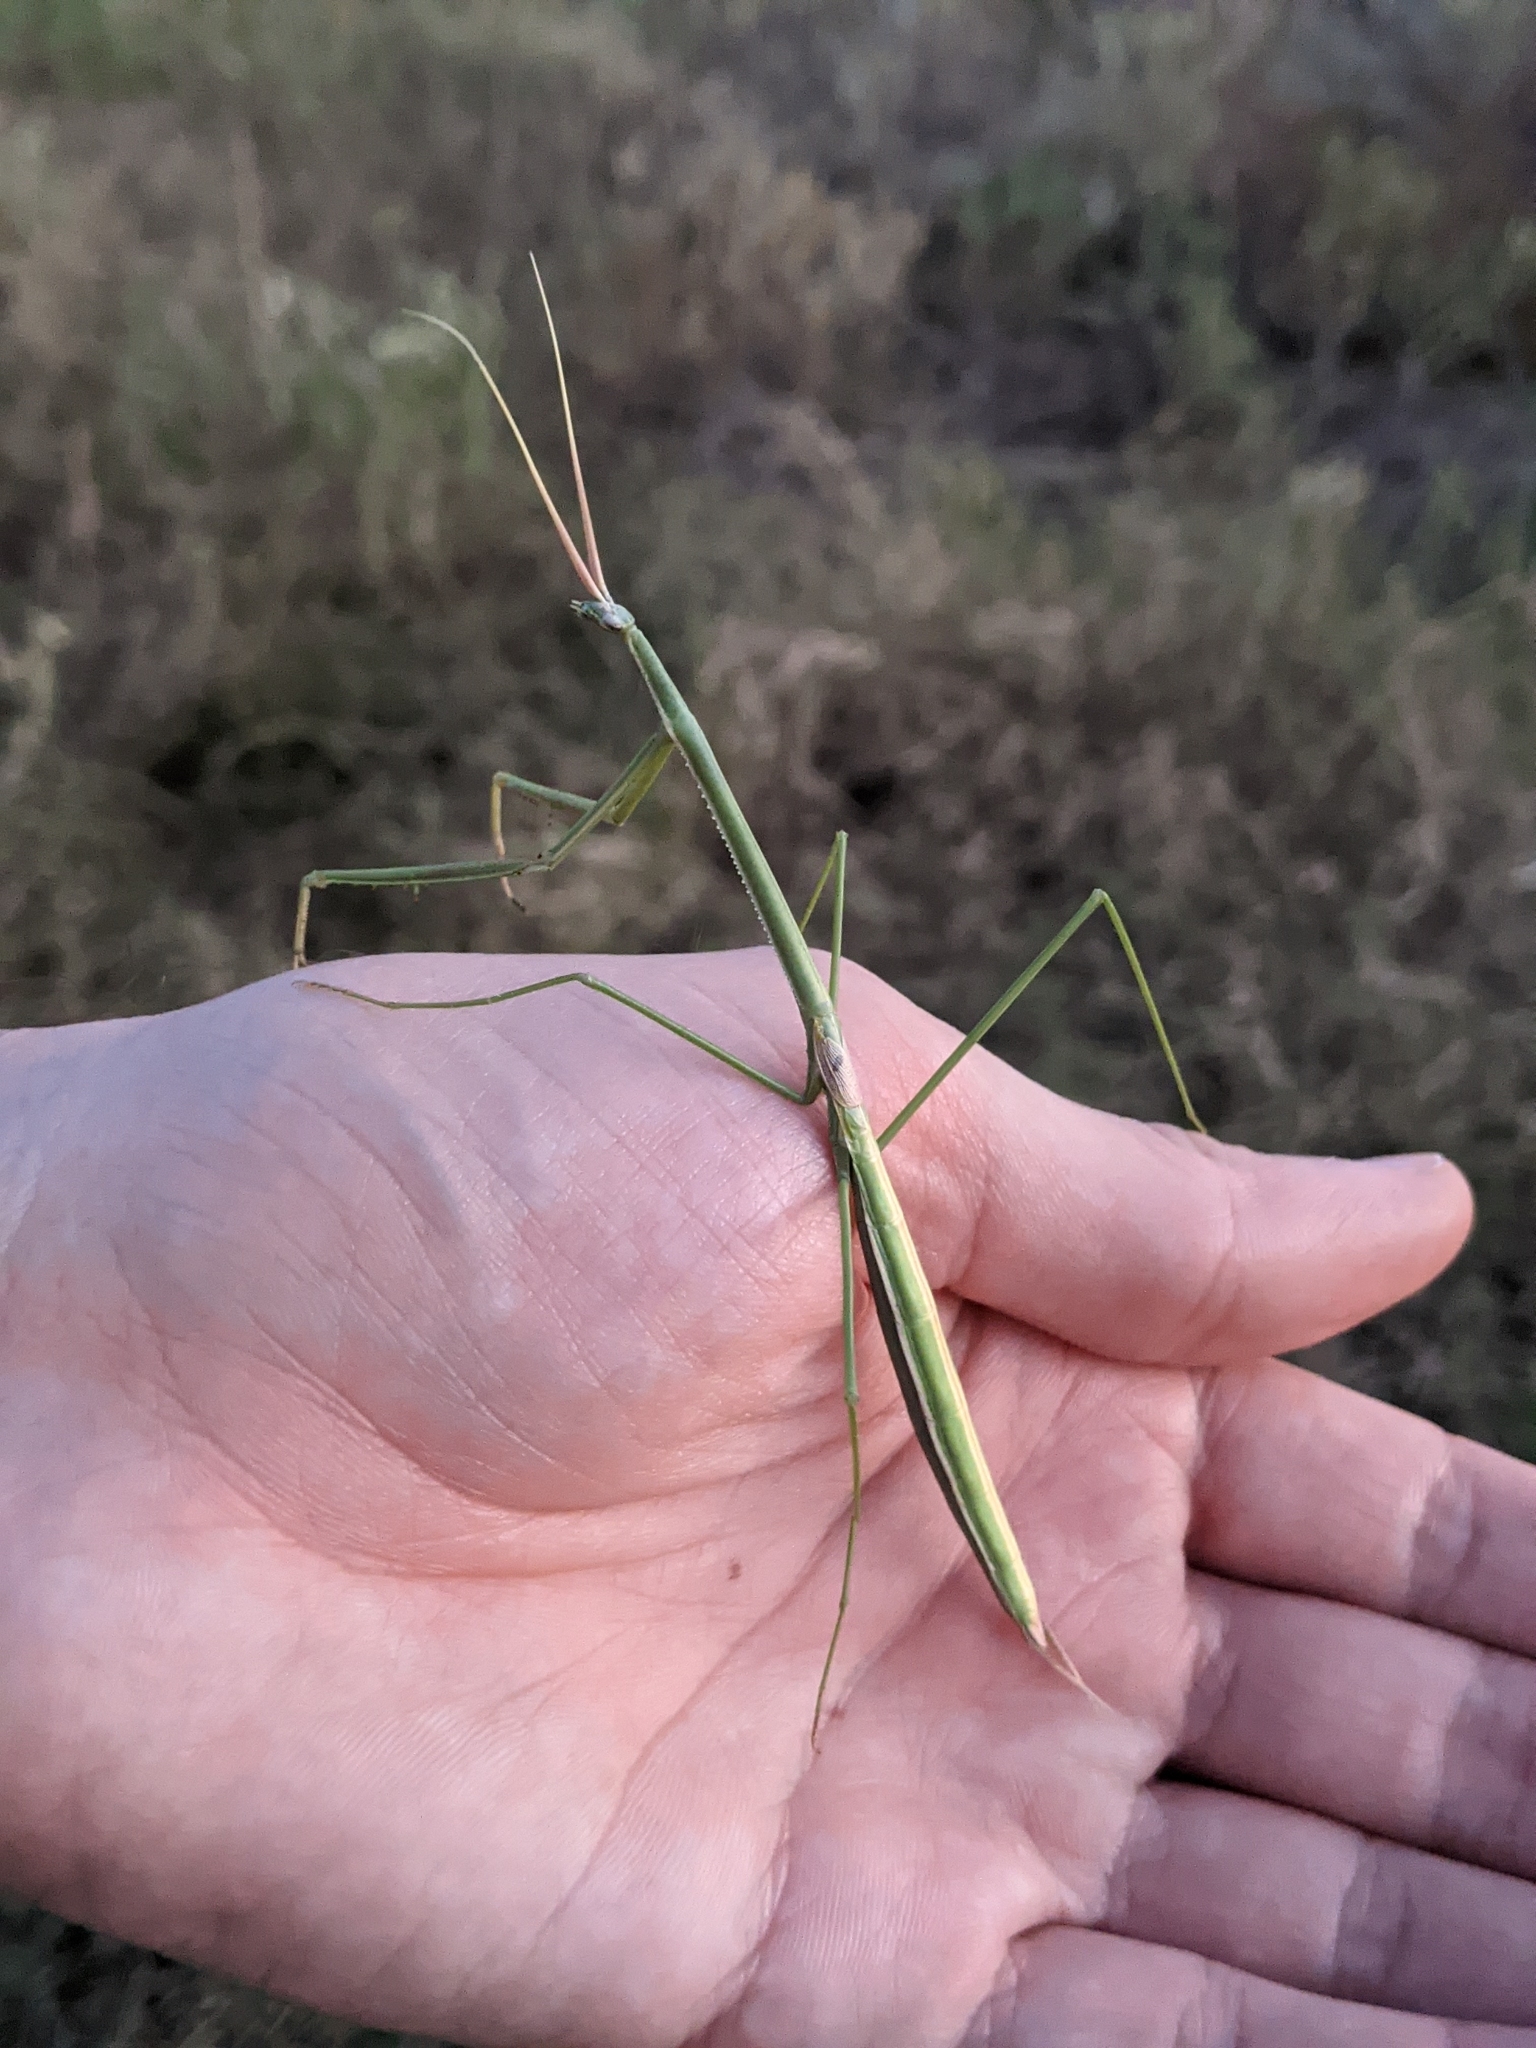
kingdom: Animalia
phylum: Arthropoda
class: Insecta
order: Mantodea
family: Coptopterygidae
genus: Brunneria
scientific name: Brunneria borealis
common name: Mantis
